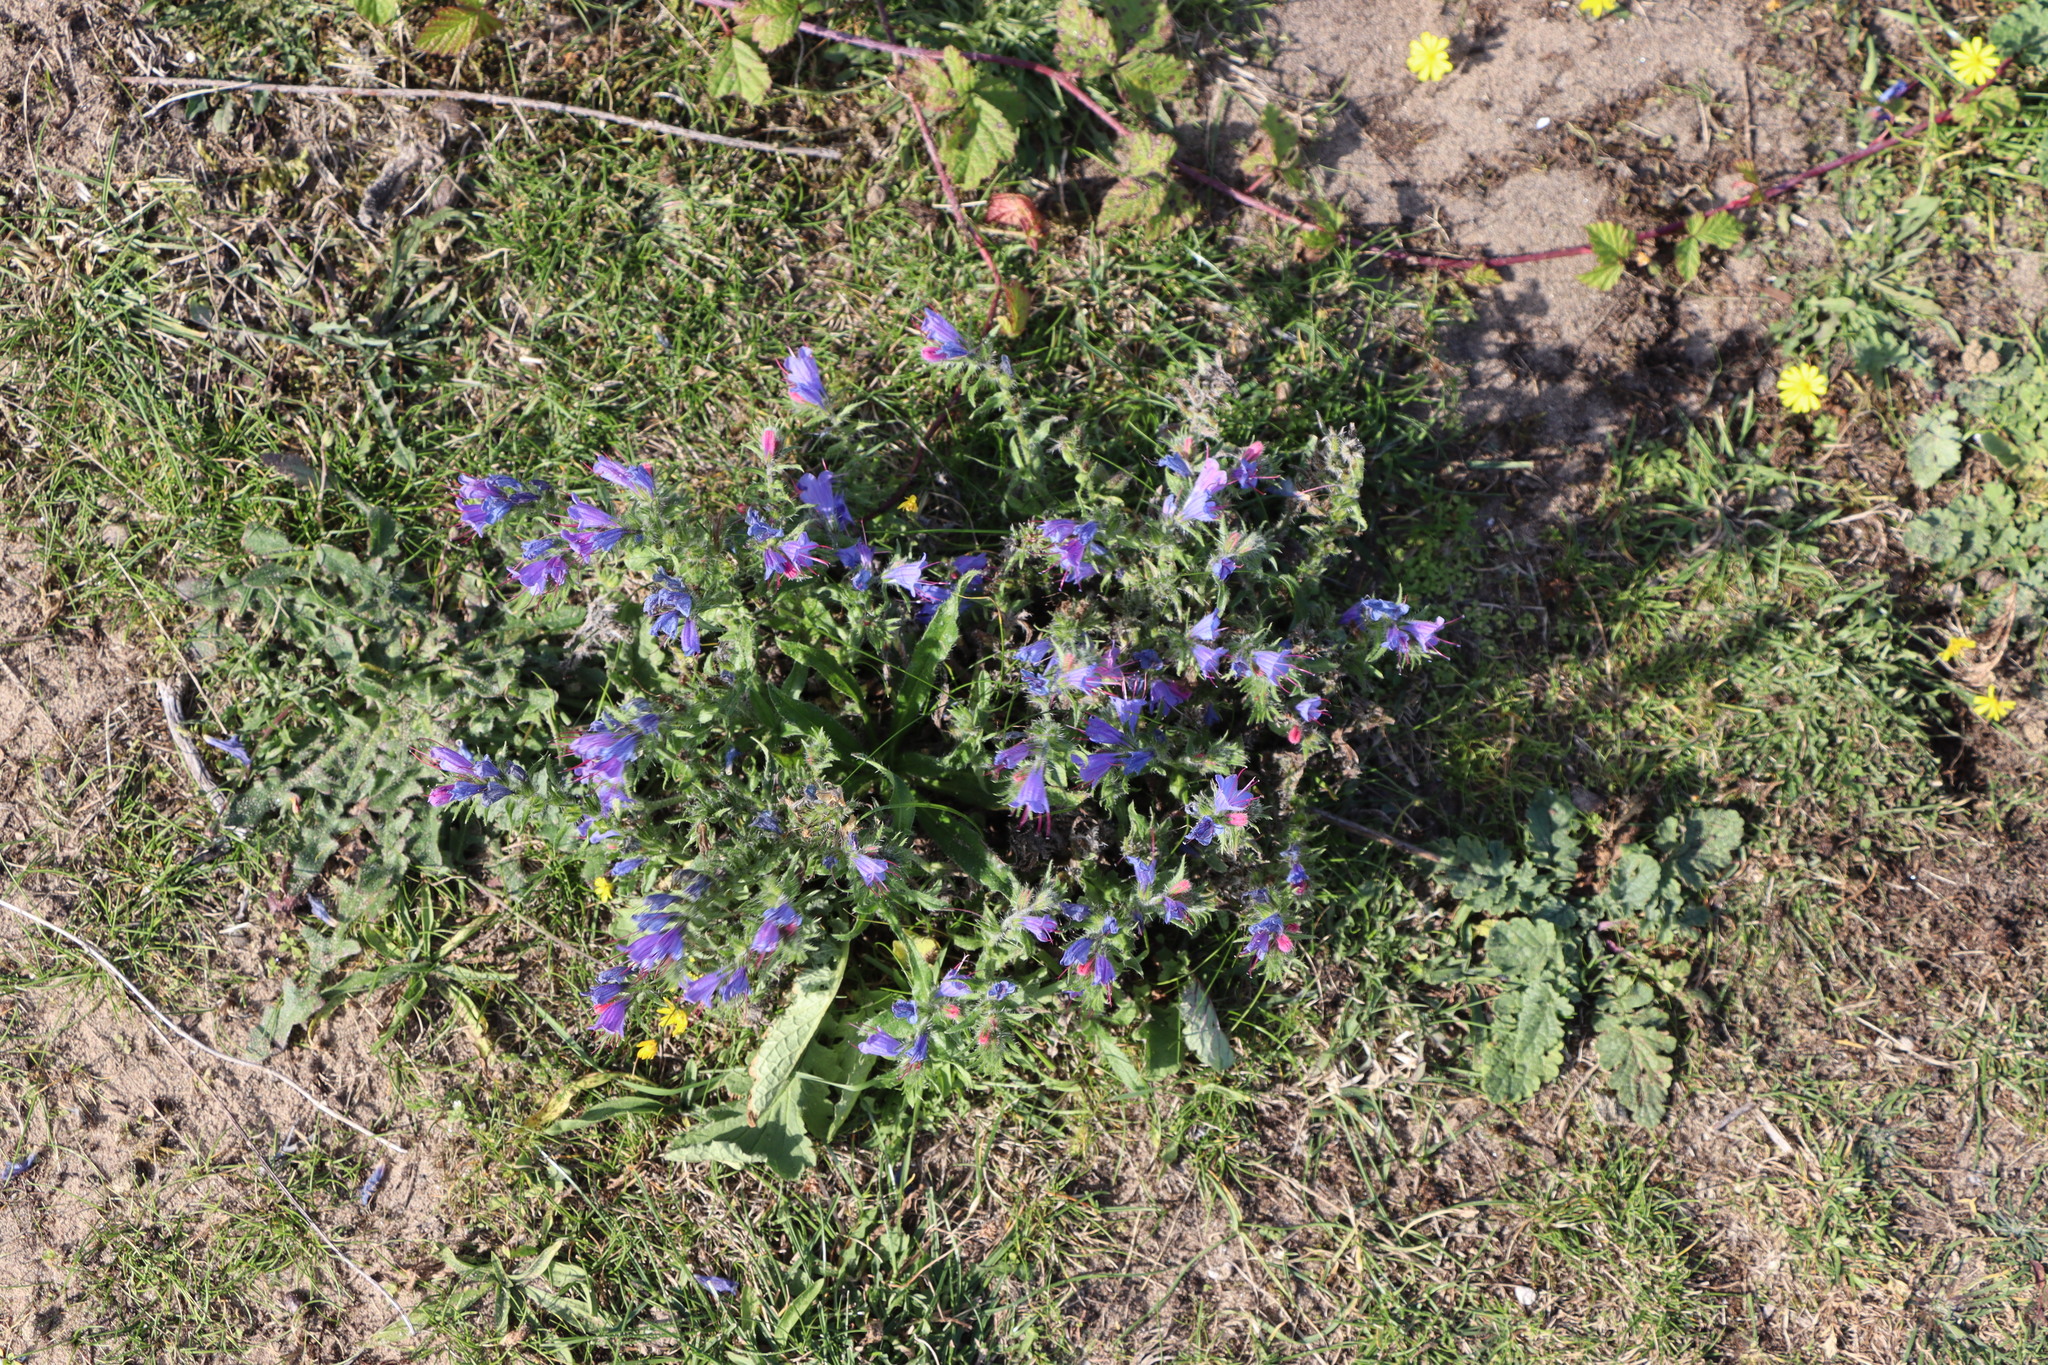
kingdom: Plantae
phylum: Tracheophyta
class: Magnoliopsida
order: Boraginales
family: Boraginaceae
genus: Echium
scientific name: Echium vulgare
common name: Common viper's bugloss
